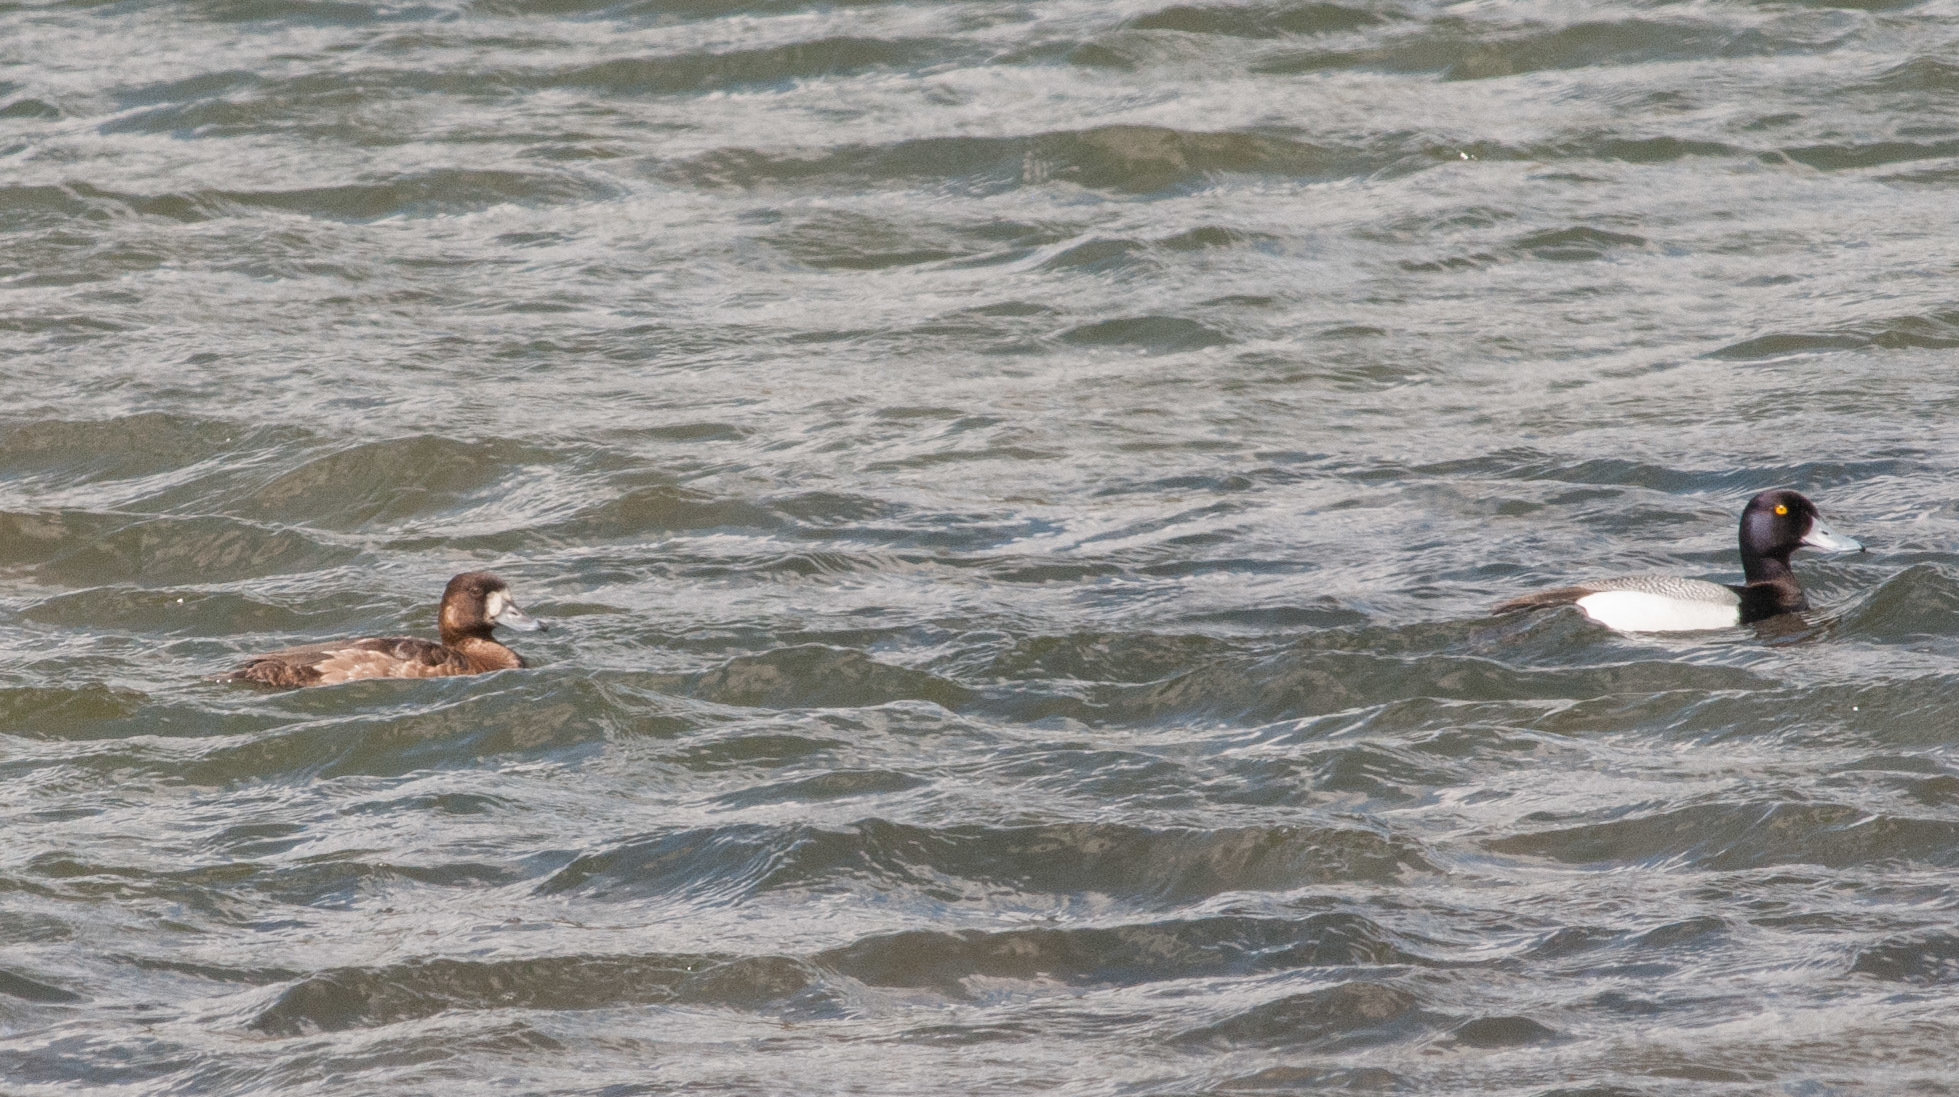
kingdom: Animalia
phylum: Chordata
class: Aves
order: Anseriformes
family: Anatidae
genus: Aythya
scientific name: Aythya marila
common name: Greater scaup
